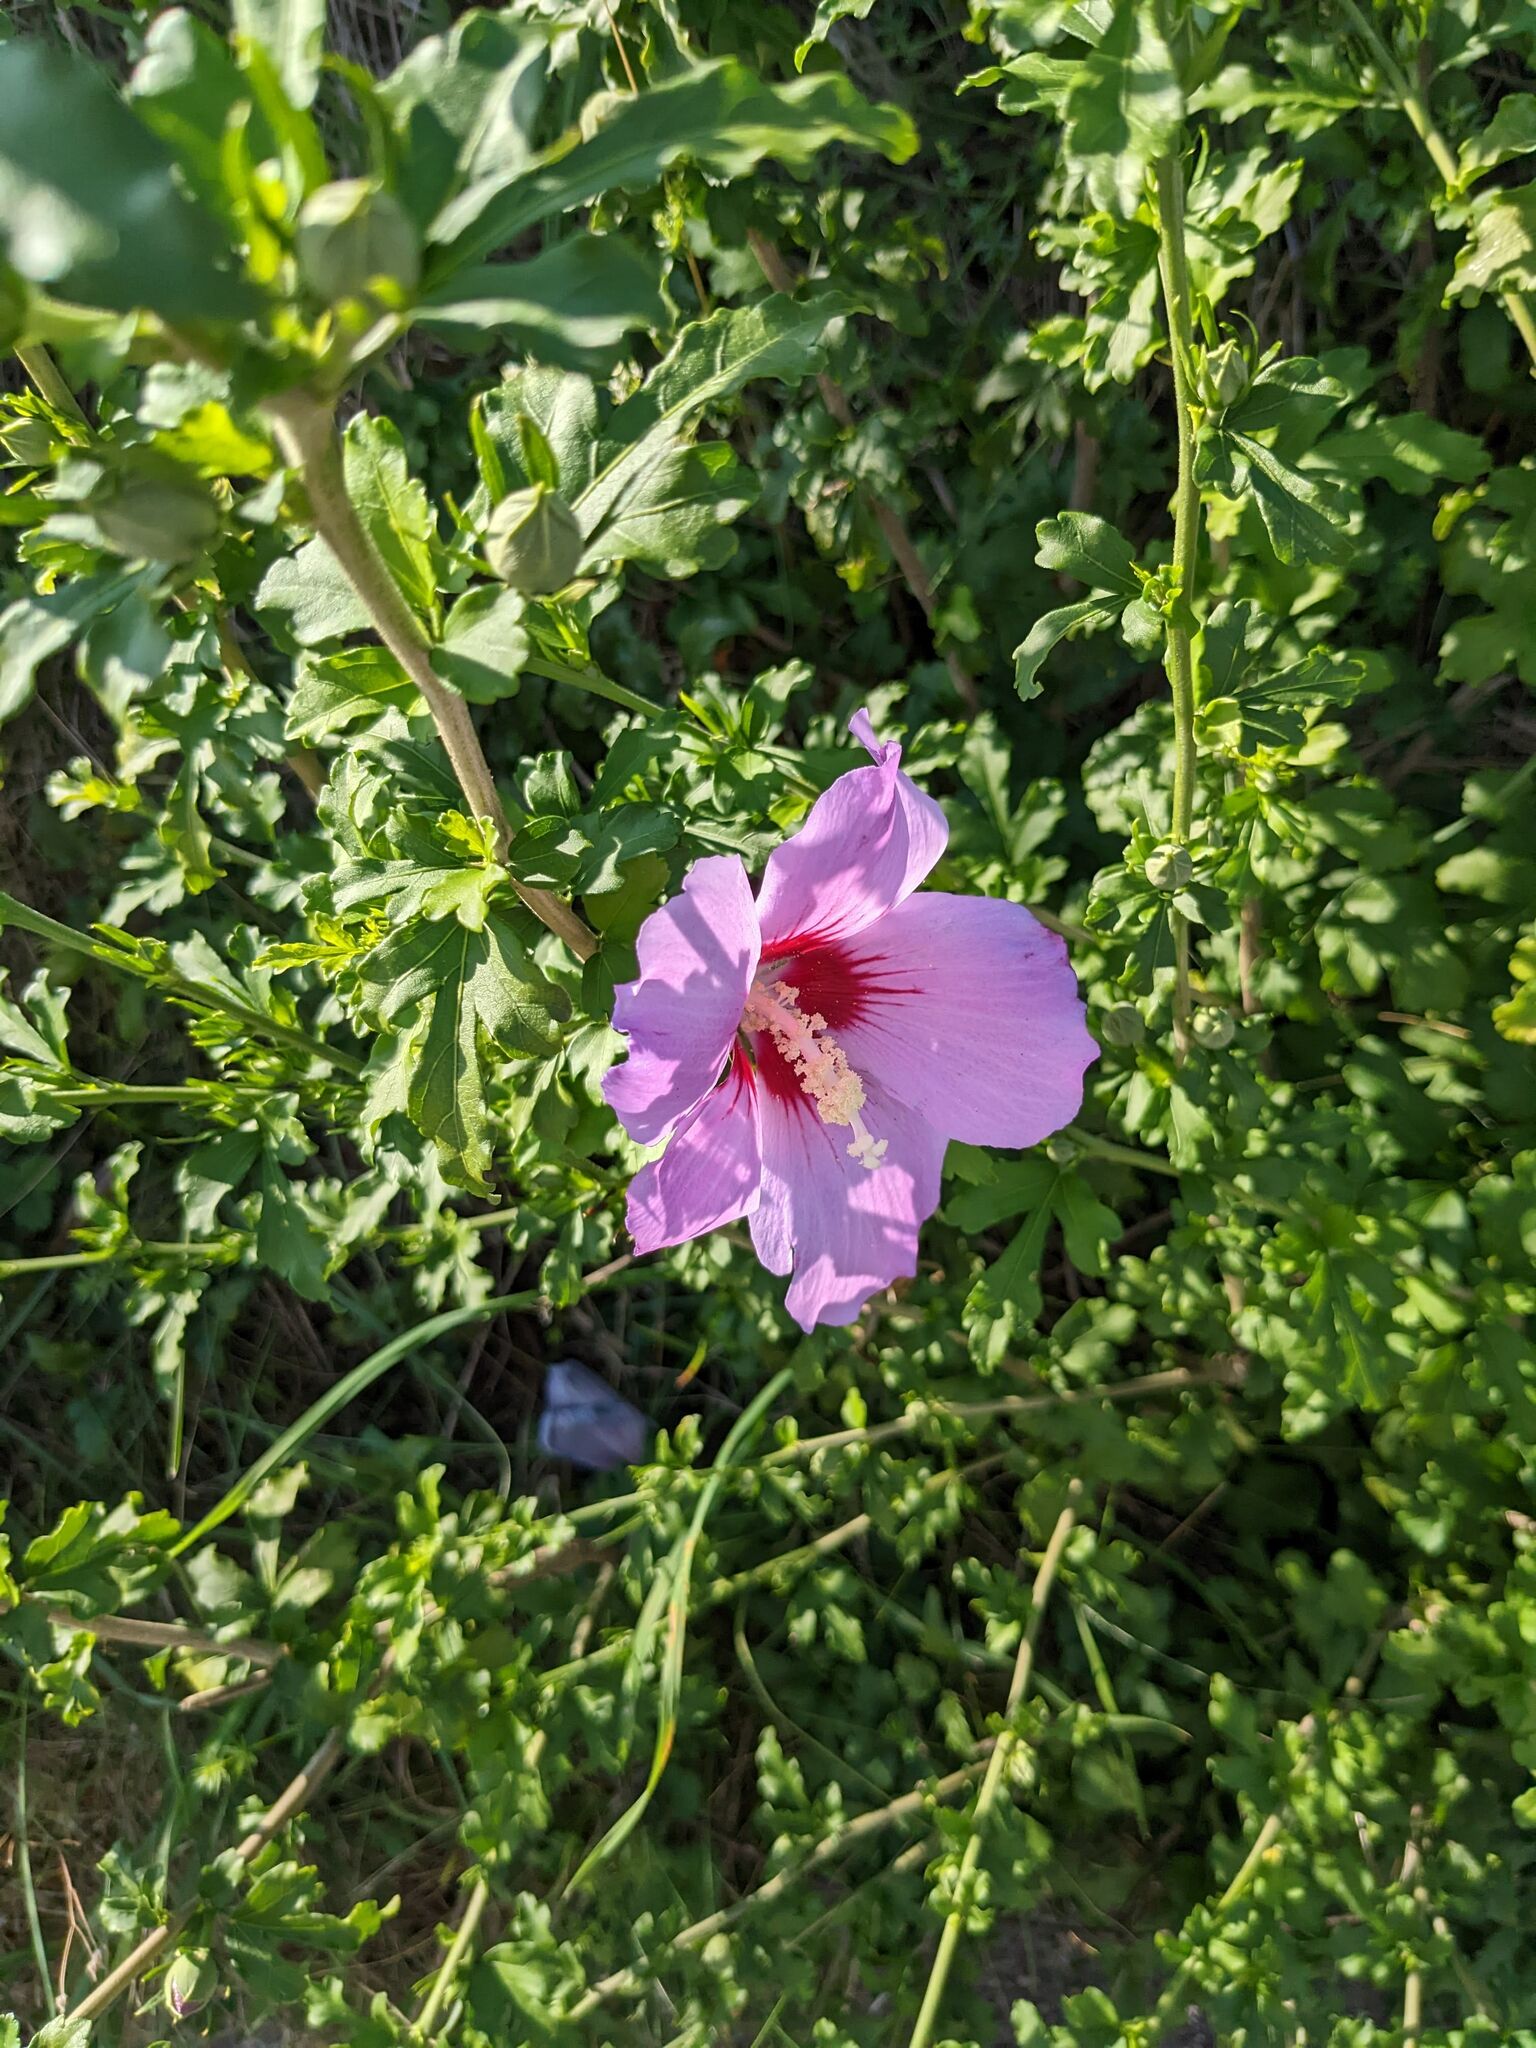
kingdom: Plantae
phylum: Tracheophyta
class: Magnoliopsida
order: Malvales
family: Malvaceae
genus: Hibiscus
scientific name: Hibiscus syriacus
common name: Syrian ketmia
